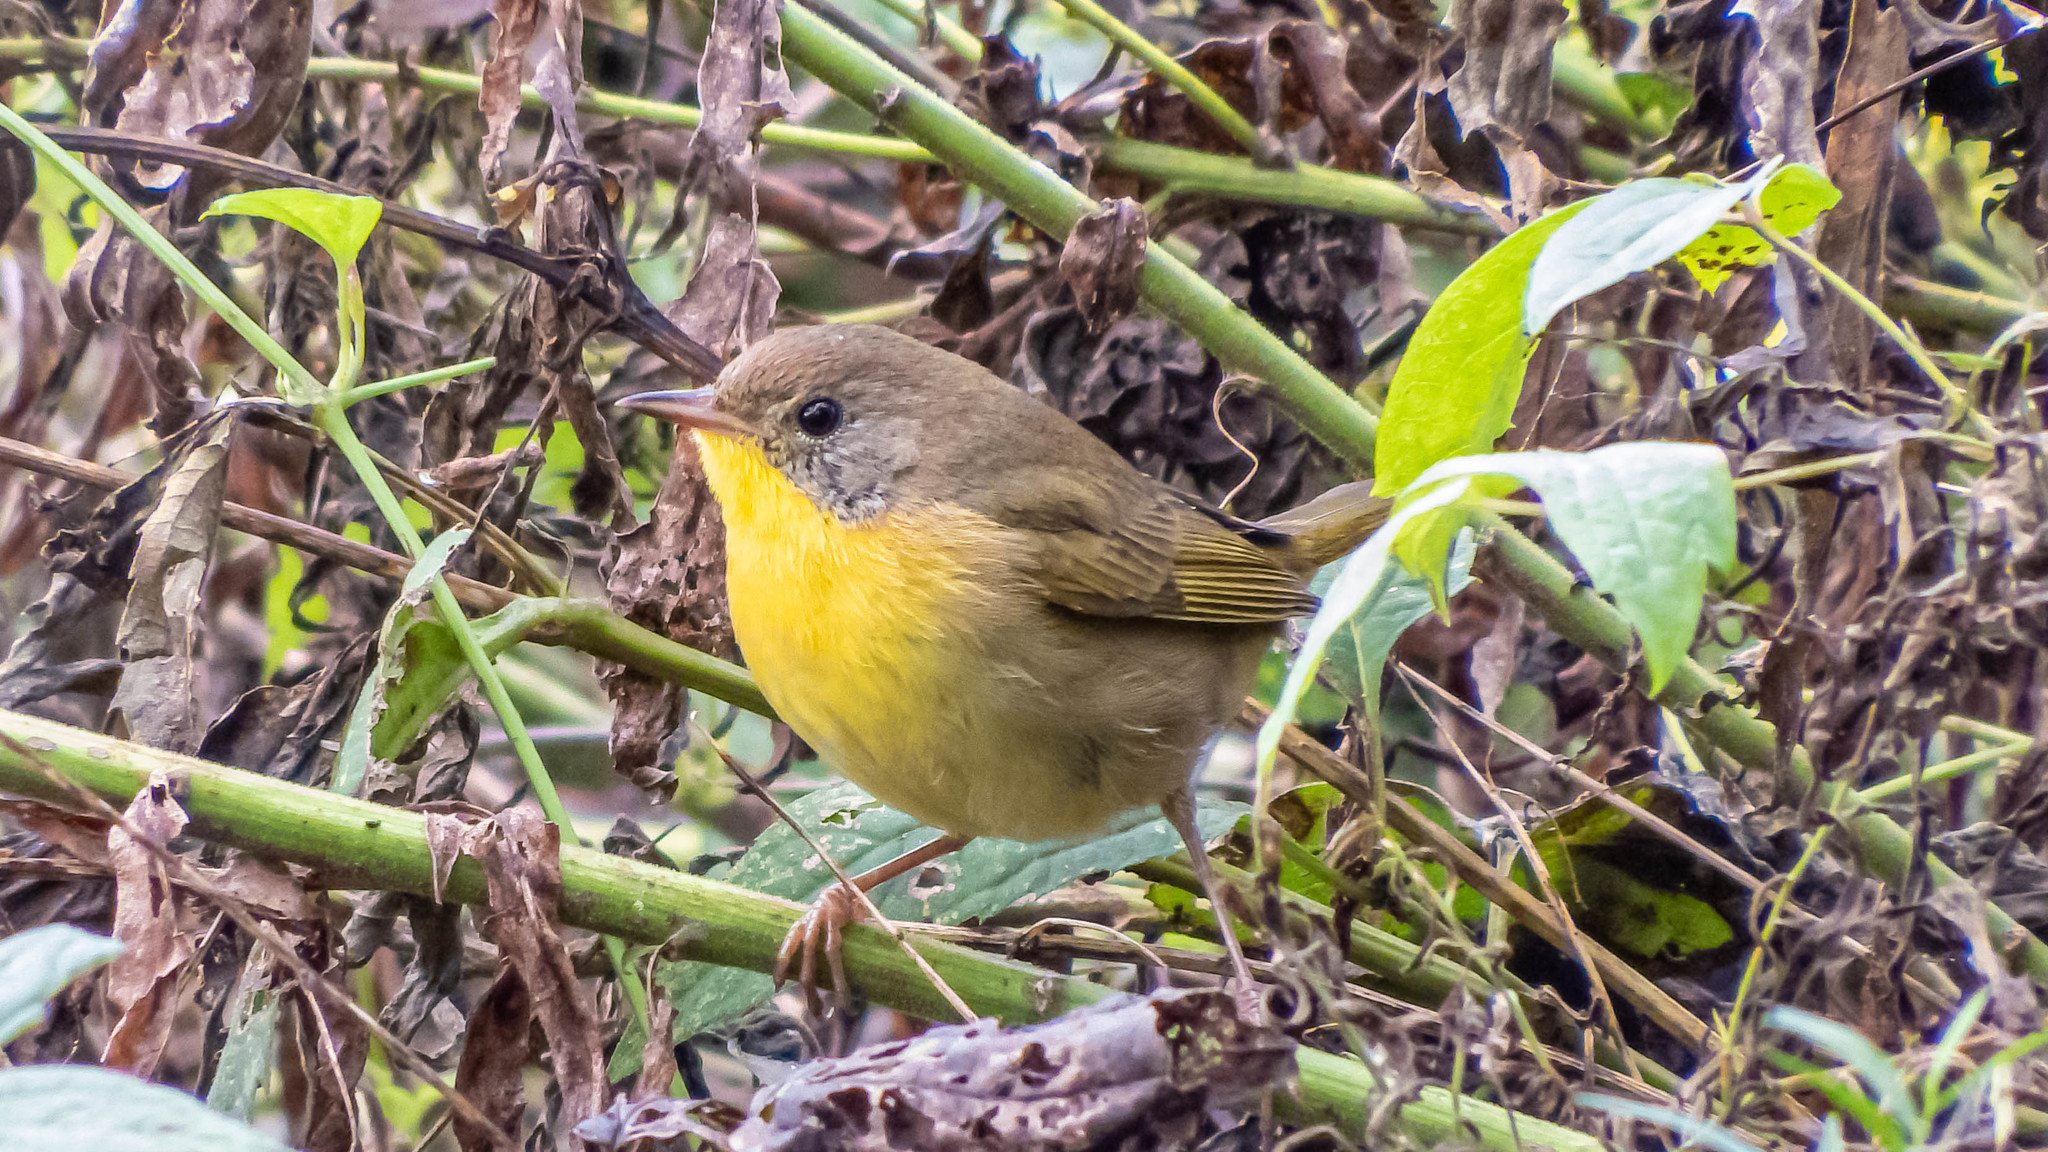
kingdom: Animalia
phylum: Chordata
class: Aves
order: Passeriformes
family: Parulidae
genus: Geothlypis
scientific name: Geothlypis trichas
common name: Common yellowthroat
